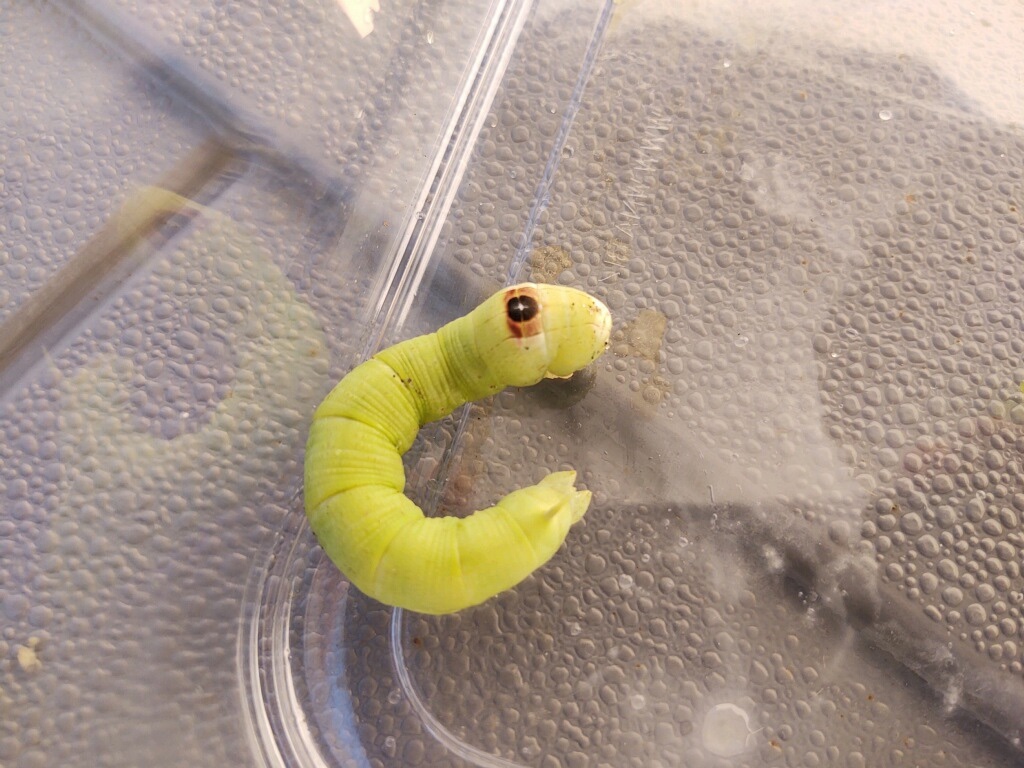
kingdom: Animalia
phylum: Arthropoda
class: Insecta
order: Lepidoptera
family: Sphingidae
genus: Erinnyis
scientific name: Erinnyis alope
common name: Alope sphinx
